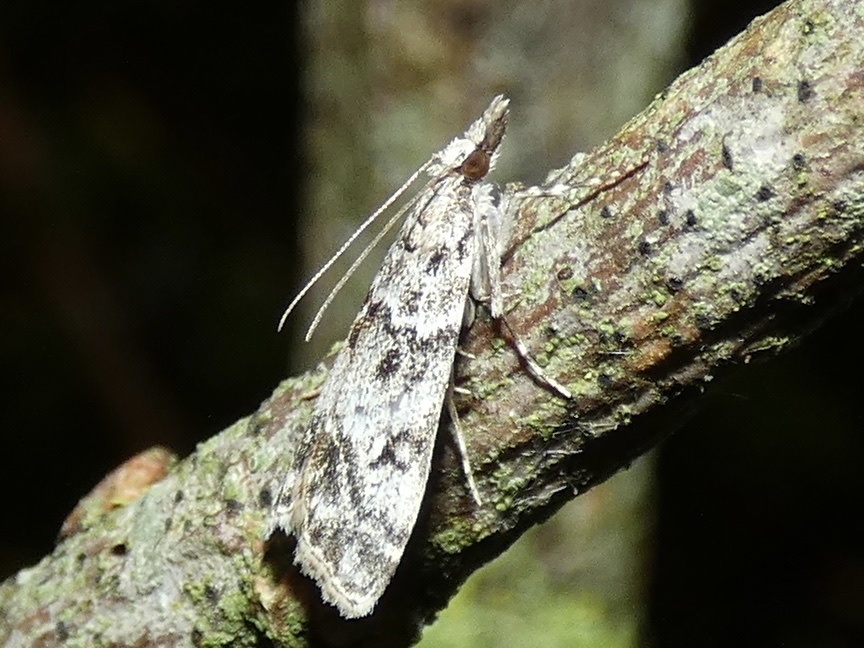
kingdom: Animalia
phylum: Arthropoda
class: Insecta
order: Lepidoptera
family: Crambidae
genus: Eudonia
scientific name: Eudonia lacustrata
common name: Little grey
